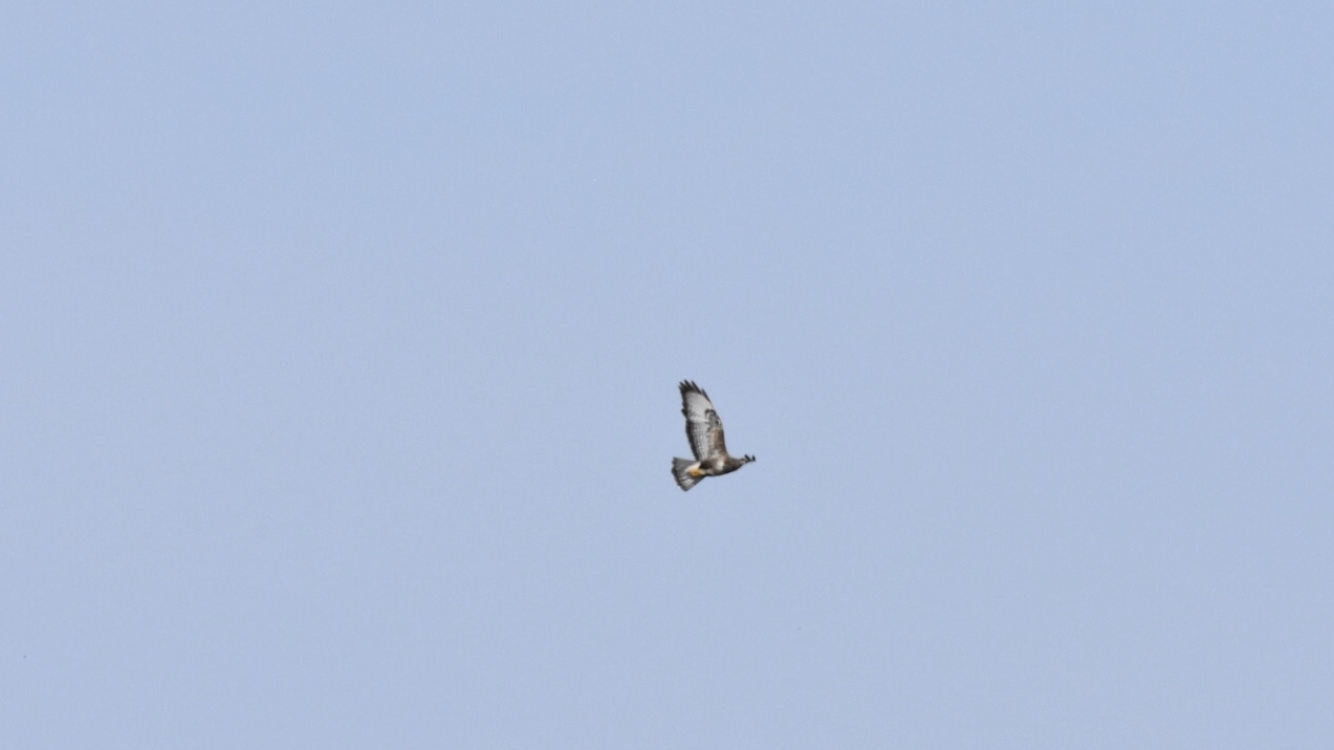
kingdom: Animalia
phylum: Chordata
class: Aves
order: Accipitriformes
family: Accipitridae
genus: Buteo
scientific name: Buteo buteo
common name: Common buzzard
